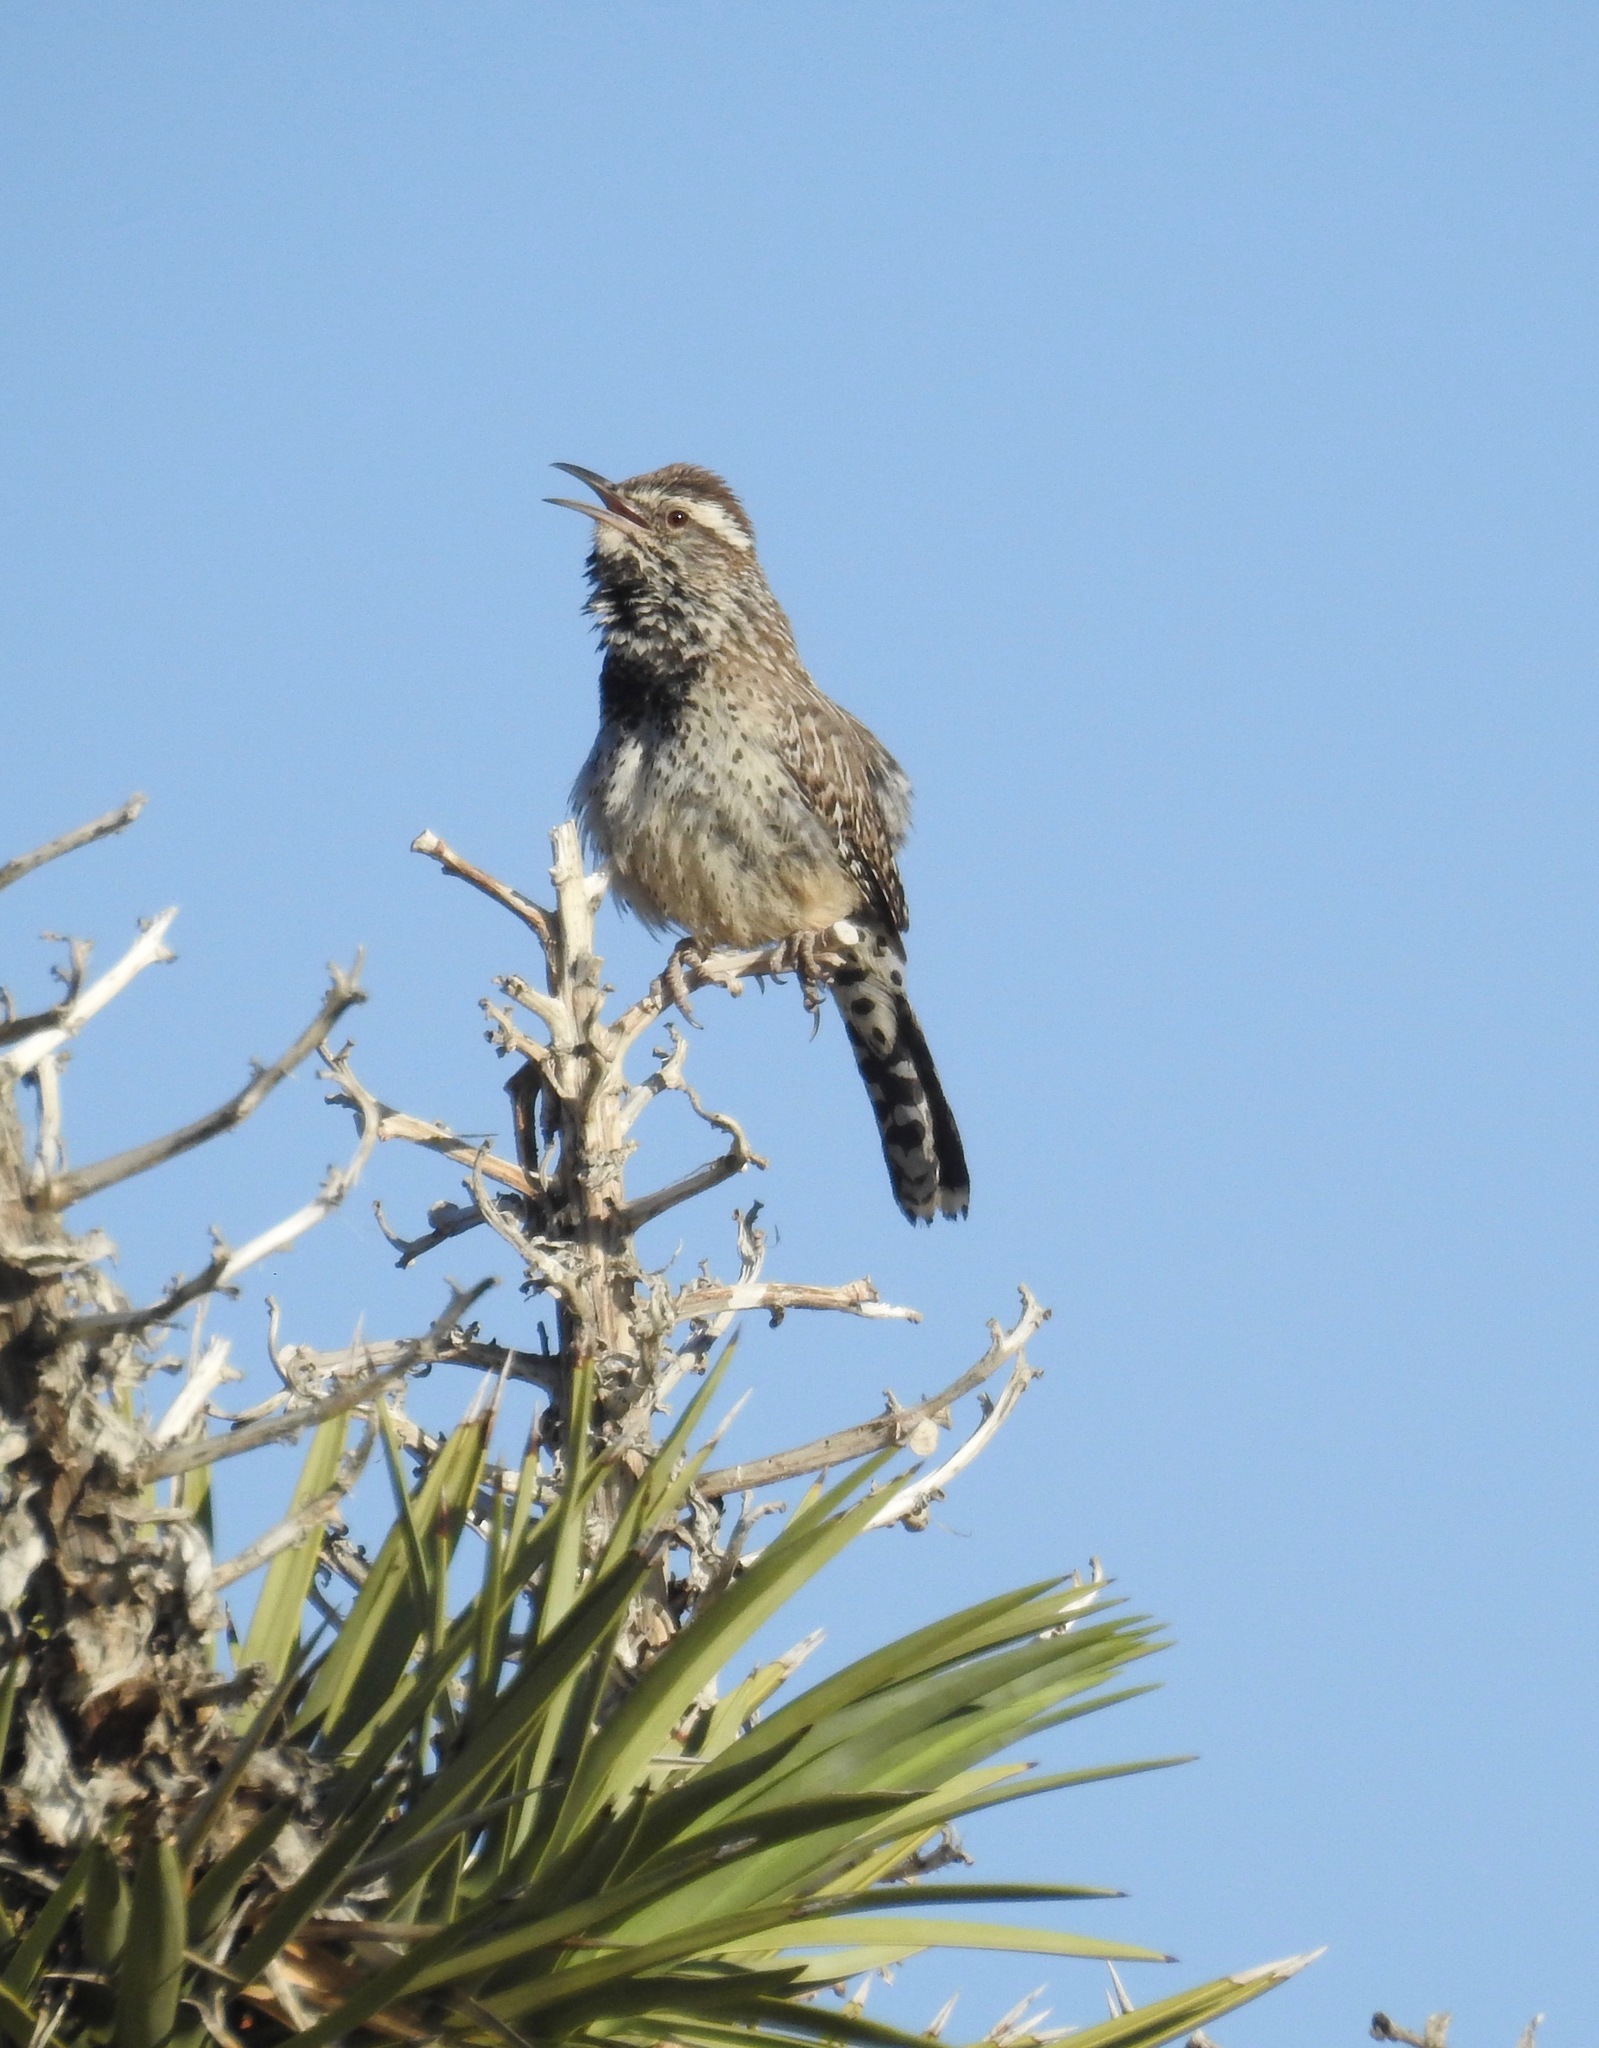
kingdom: Animalia
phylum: Chordata
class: Aves
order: Passeriformes
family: Troglodytidae
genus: Campylorhynchus
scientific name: Campylorhynchus brunneicapillus
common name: Cactus wren
